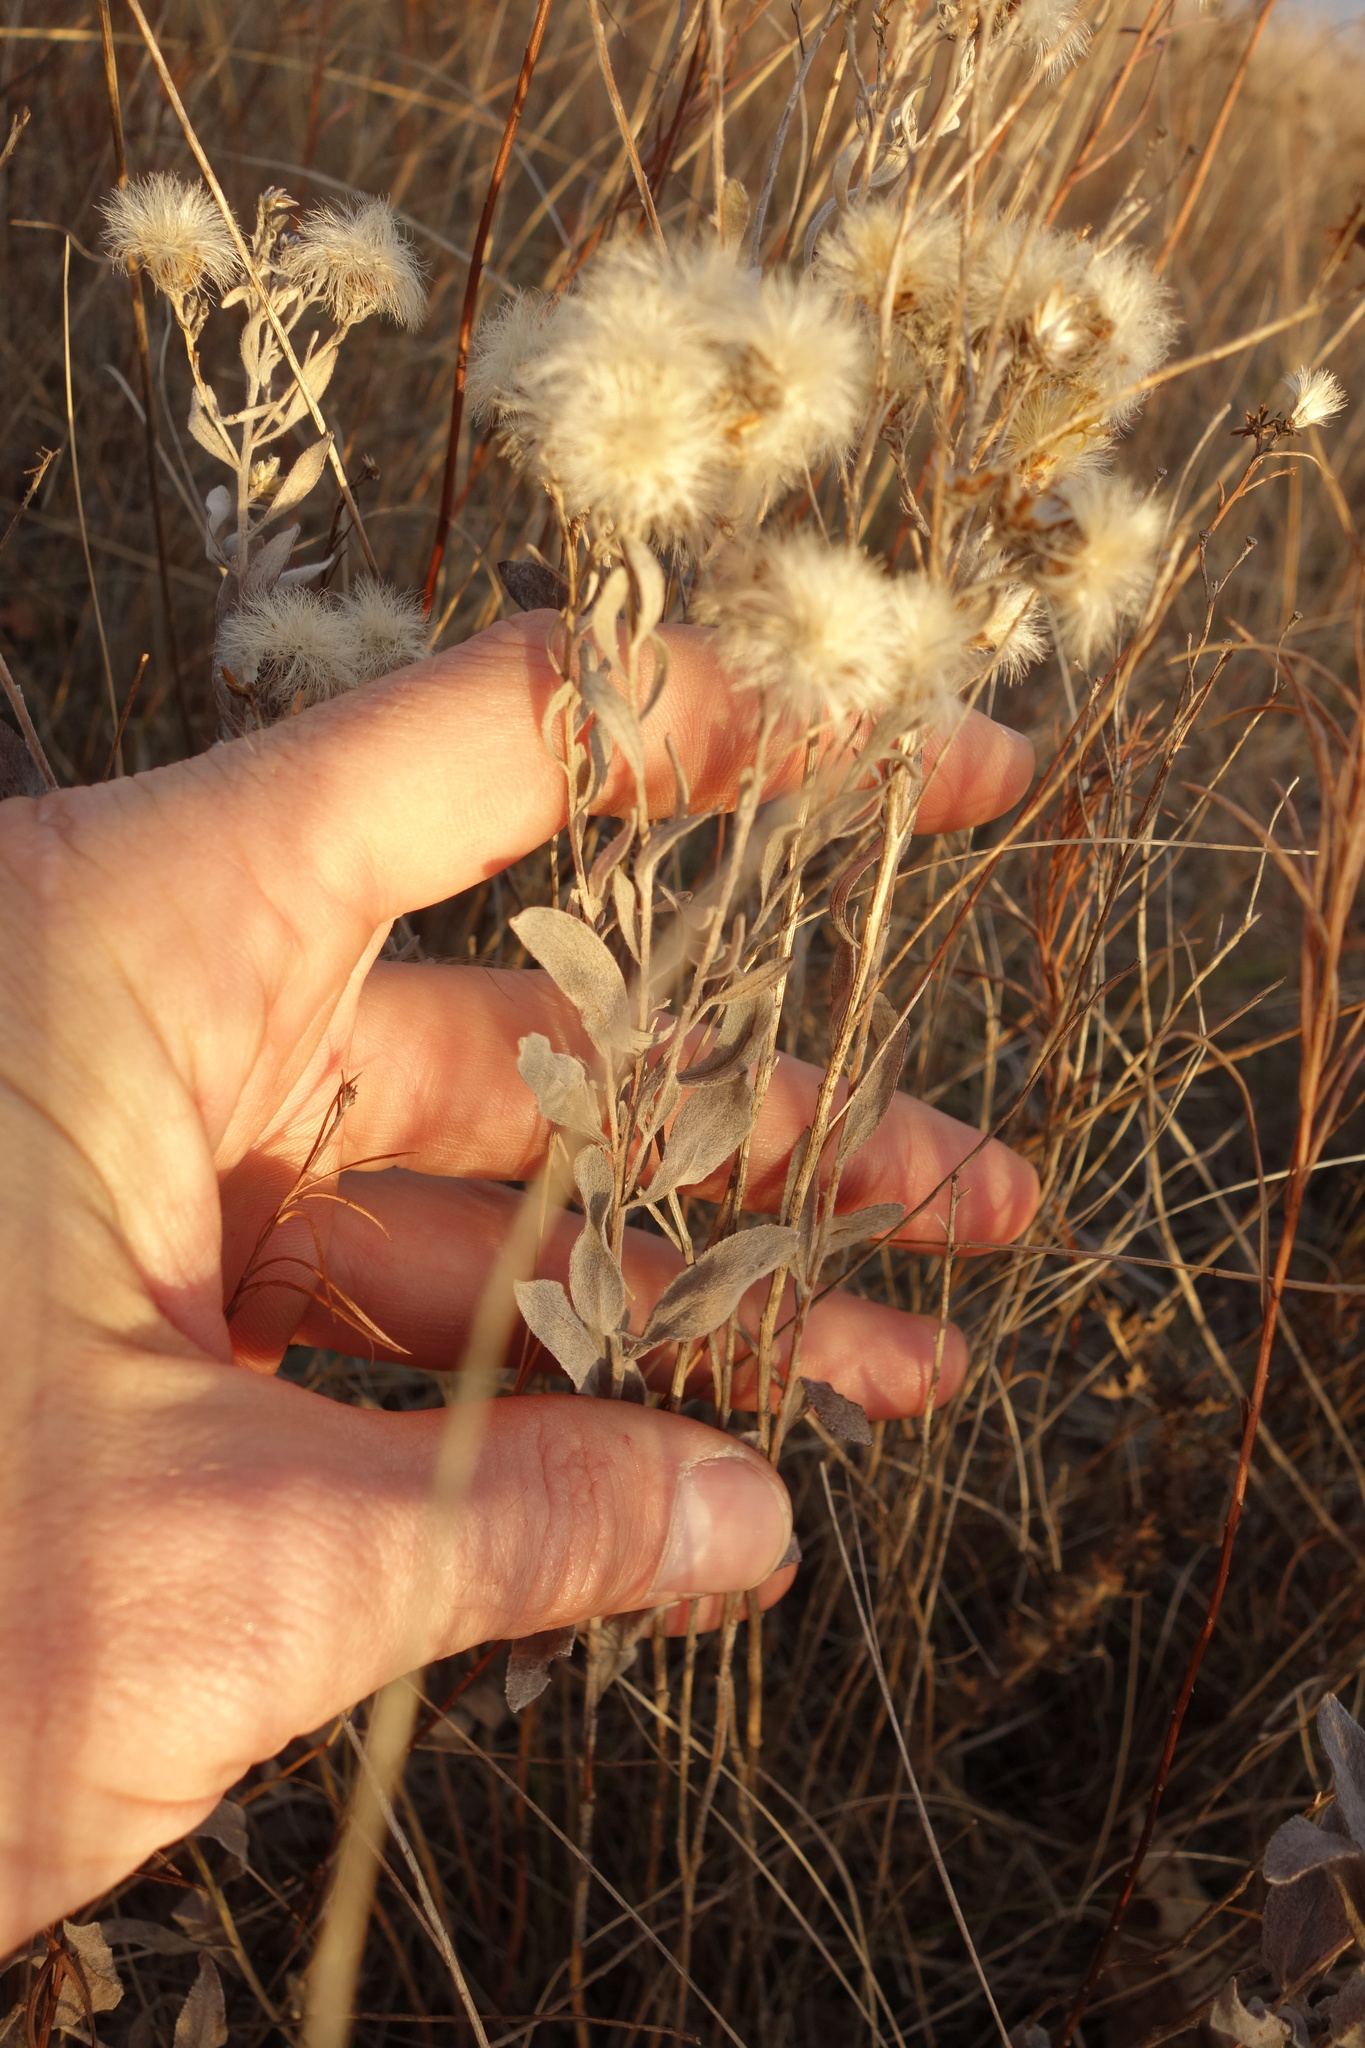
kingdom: Plantae
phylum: Tracheophyta
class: Magnoliopsida
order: Asterales
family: Asteraceae
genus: Galatella
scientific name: Galatella villosa
